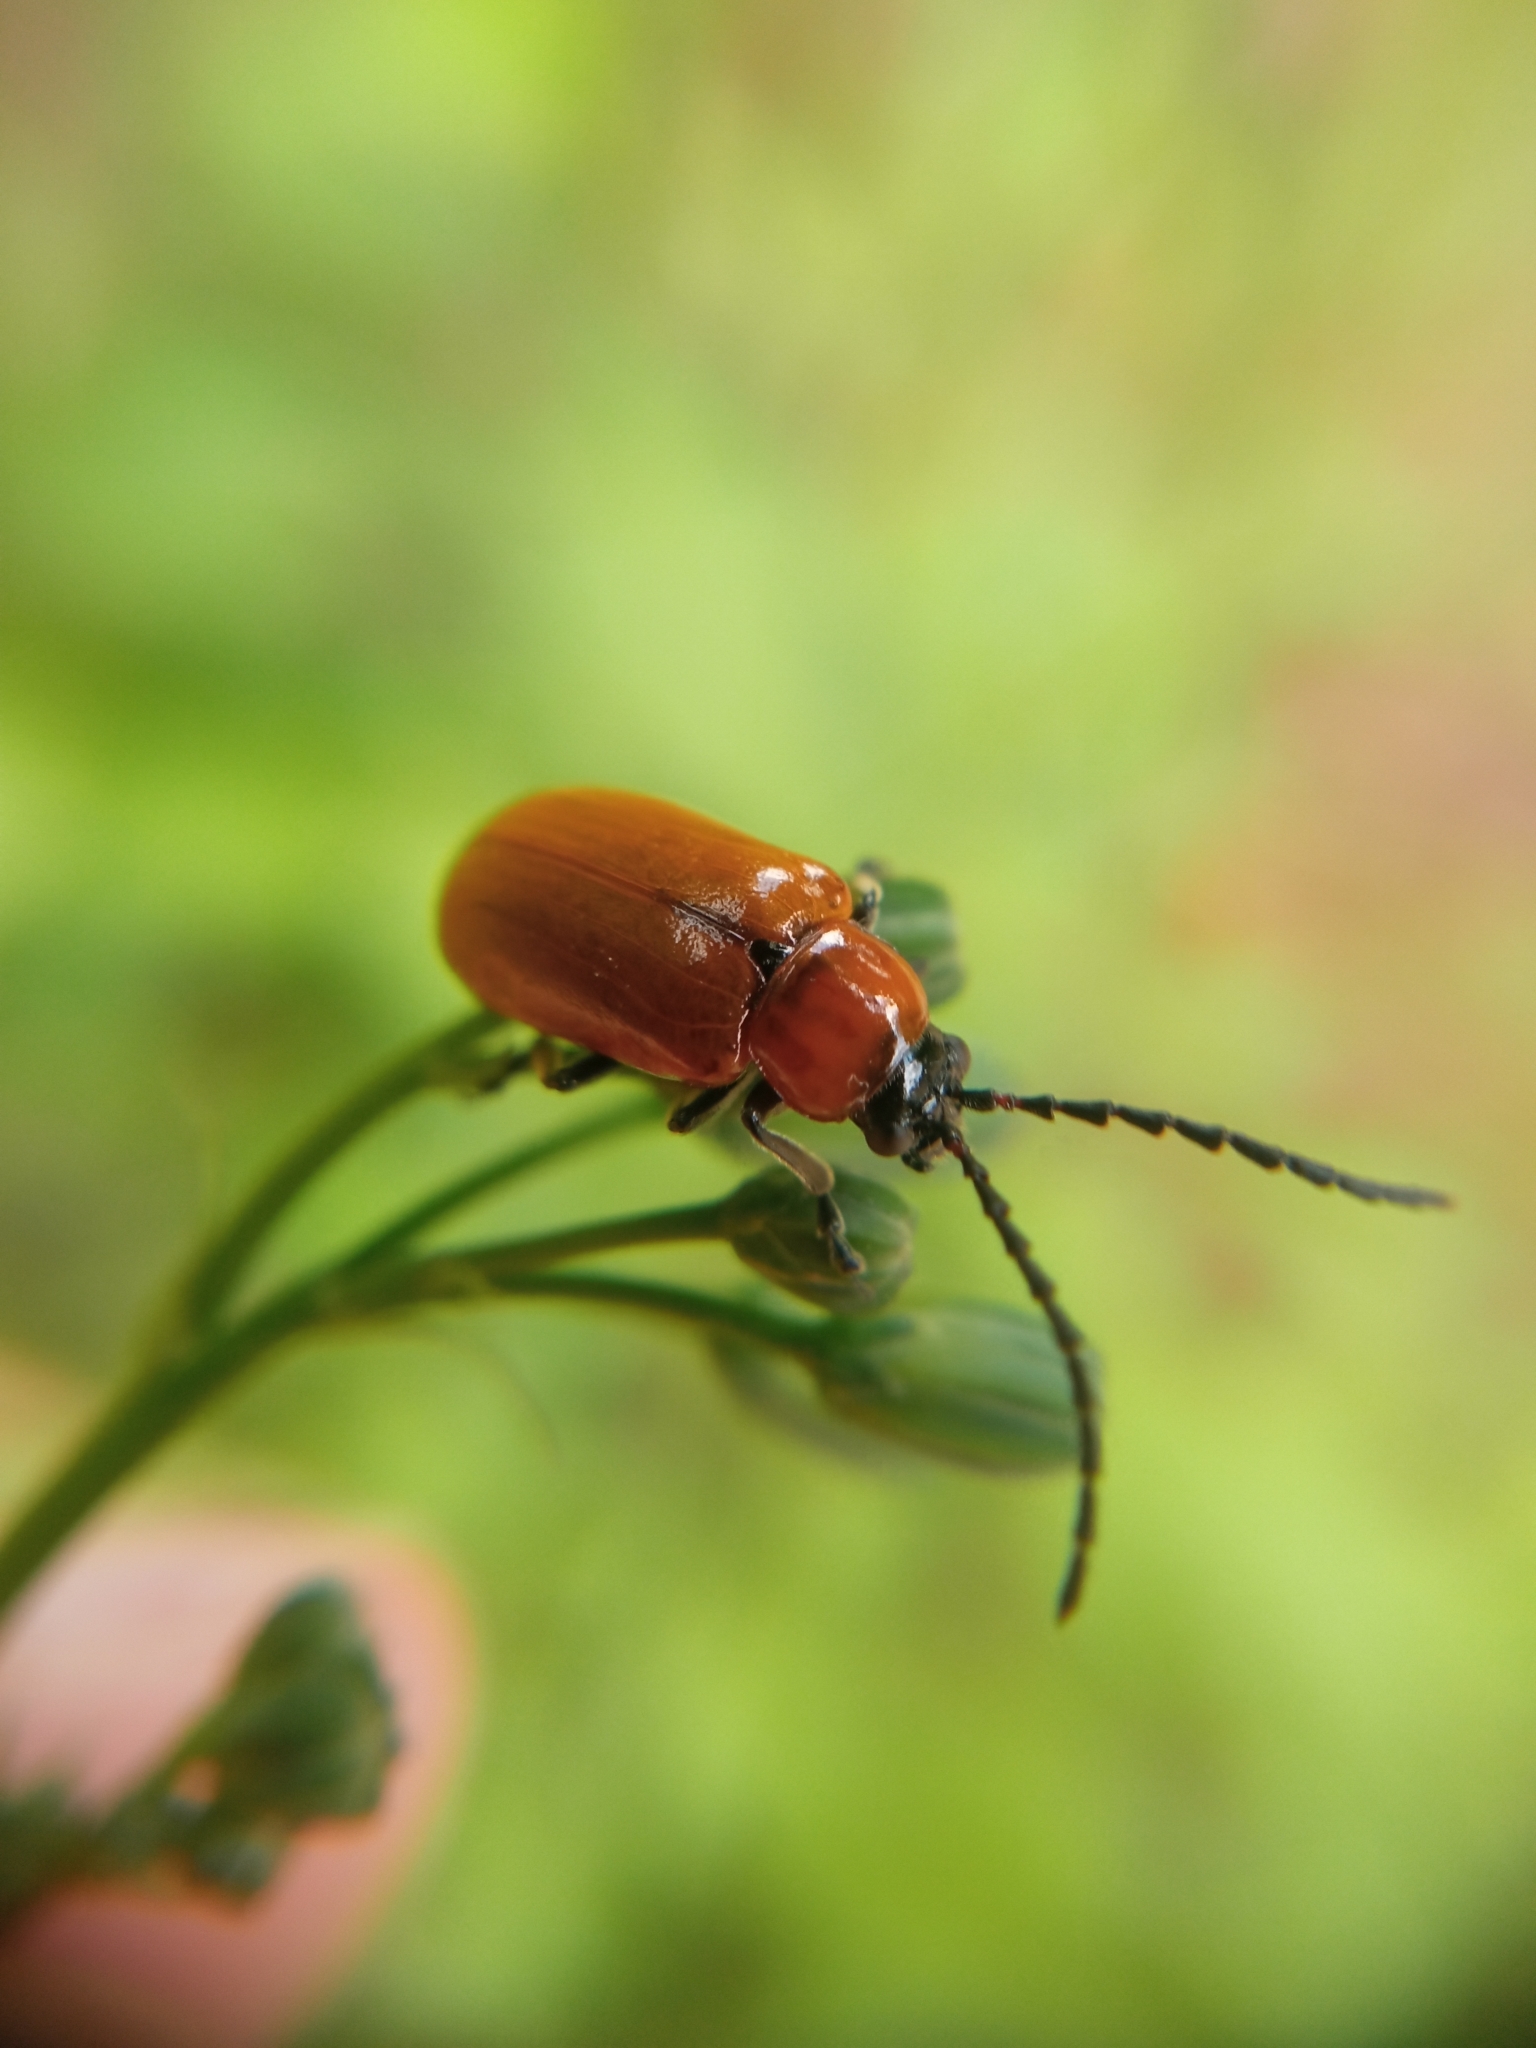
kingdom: Animalia
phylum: Arthropoda
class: Insecta
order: Coleoptera
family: Chrysomelidae
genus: Exosoma
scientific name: Exosoma lusitanicum
